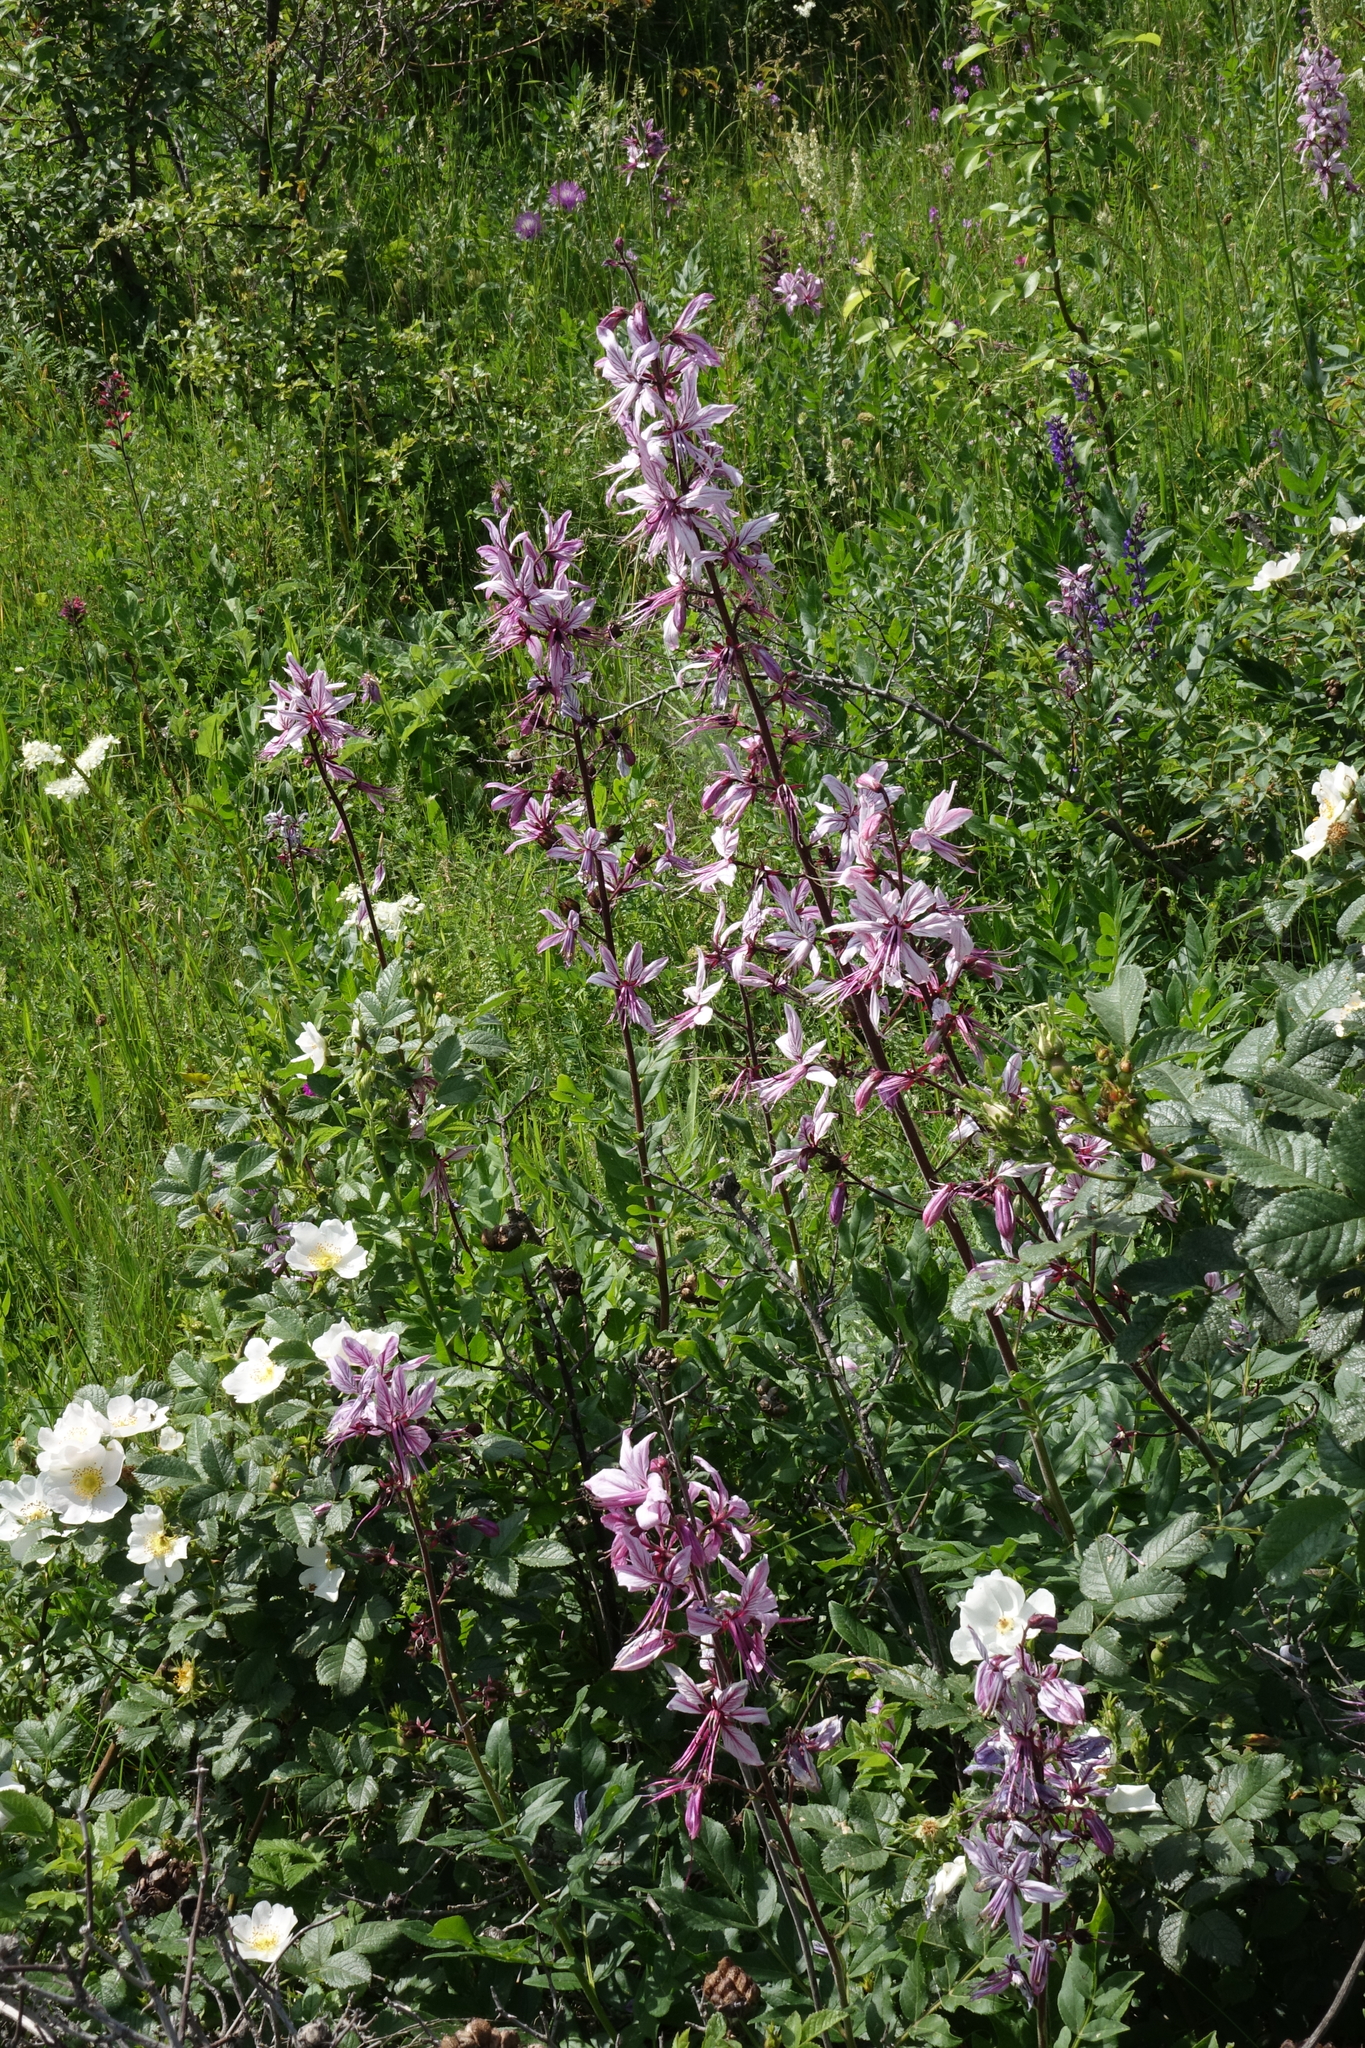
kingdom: Plantae
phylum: Tracheophyta
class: Magnoliopsida
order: Sapindales
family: Rutaceae
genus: Dictamnus
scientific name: Dictamnus albus
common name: Gasplant
